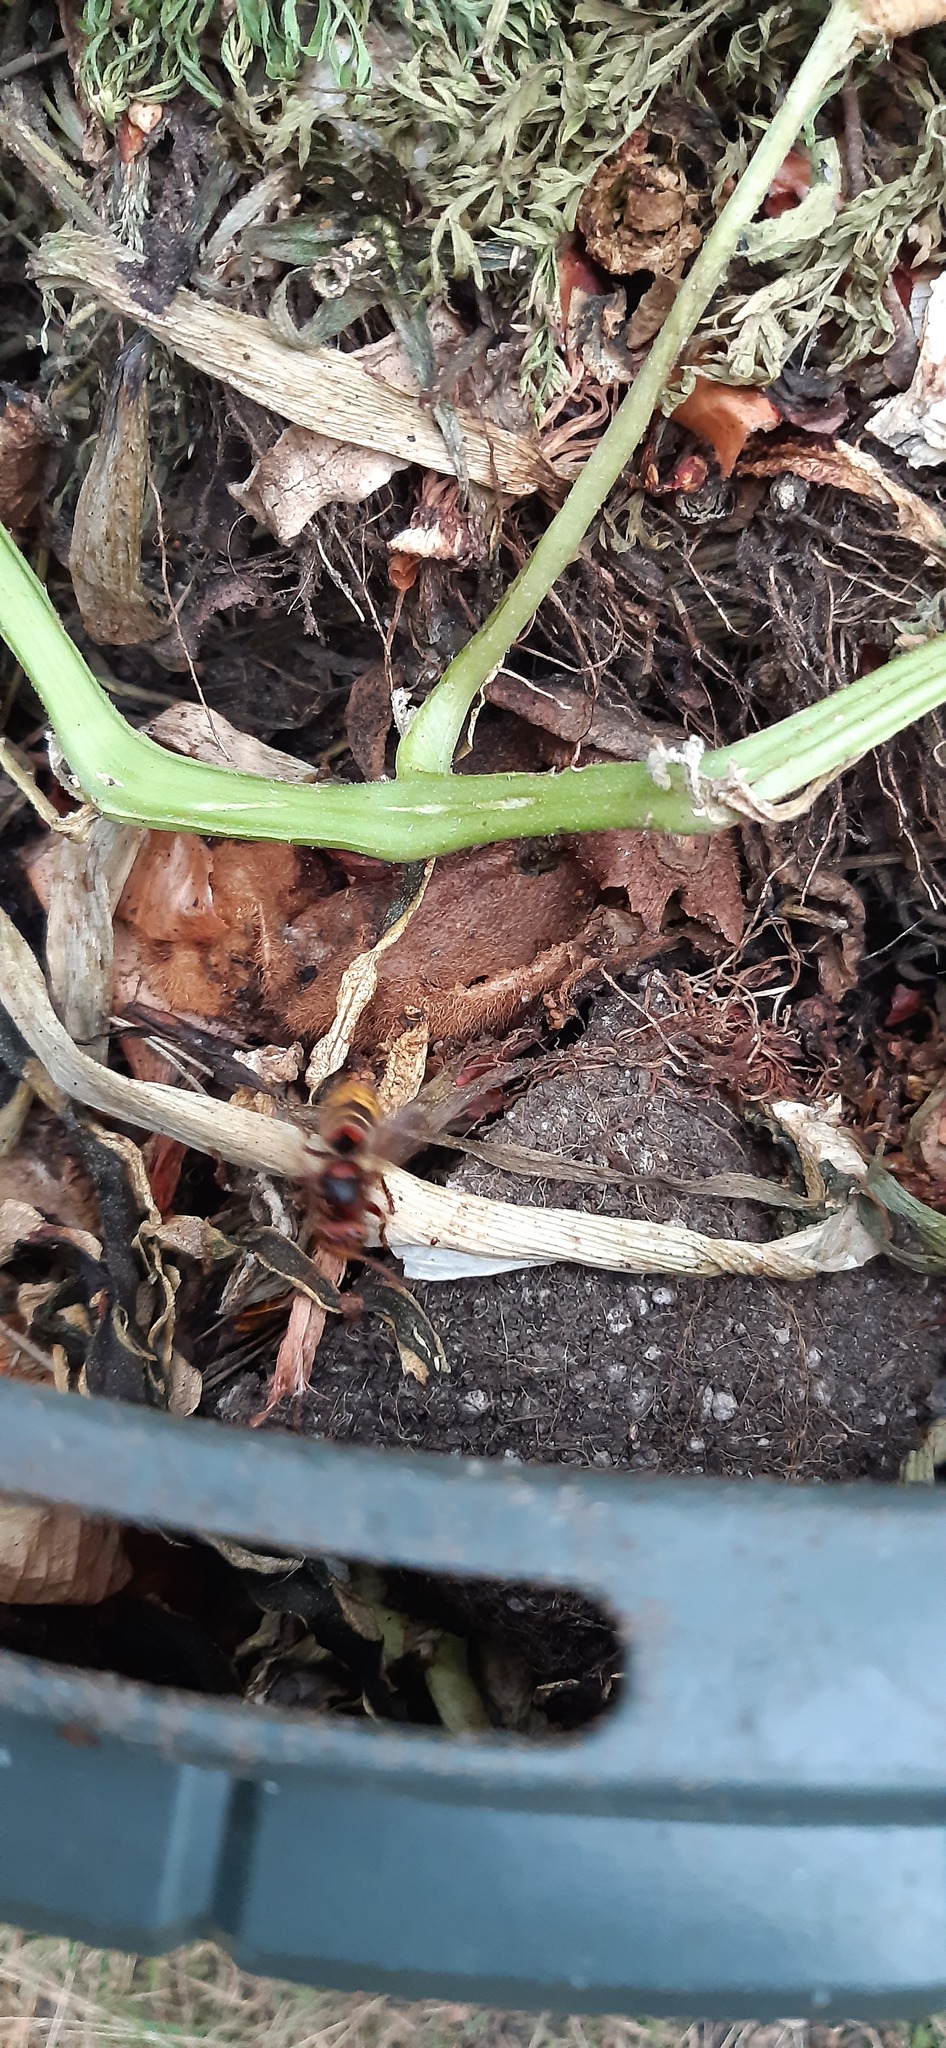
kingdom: Animalia
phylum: Arthropoda
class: Insecta
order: Hymenoptera
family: Vespidae
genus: Vespa
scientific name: Vespa crabro
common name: Hornet
